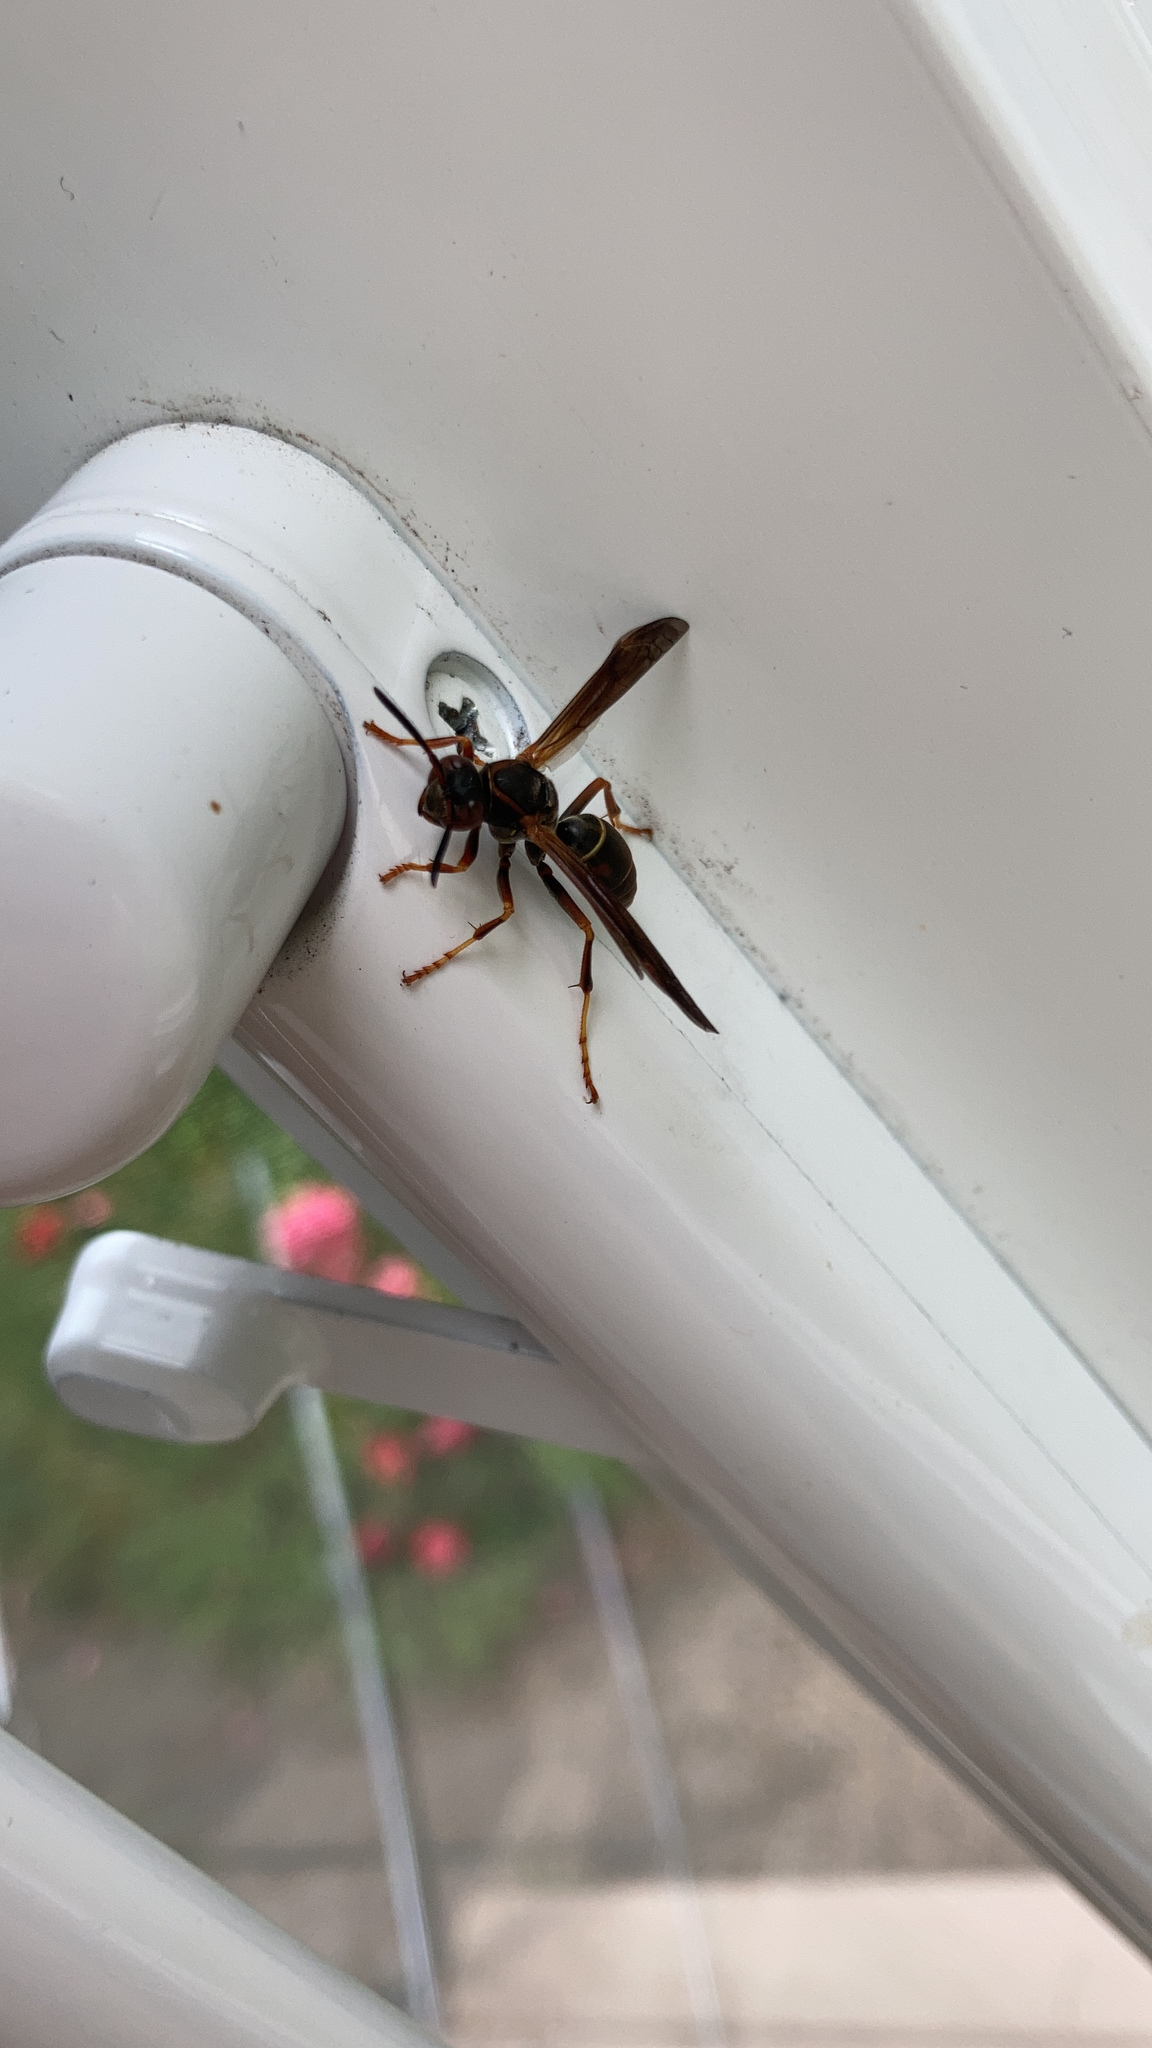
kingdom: Animalia
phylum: Arthropoda
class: Insecta
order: Hymenoptera
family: Eumenidae
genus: Polistes
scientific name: Polistes fuscatus
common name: Dark paper wasp
